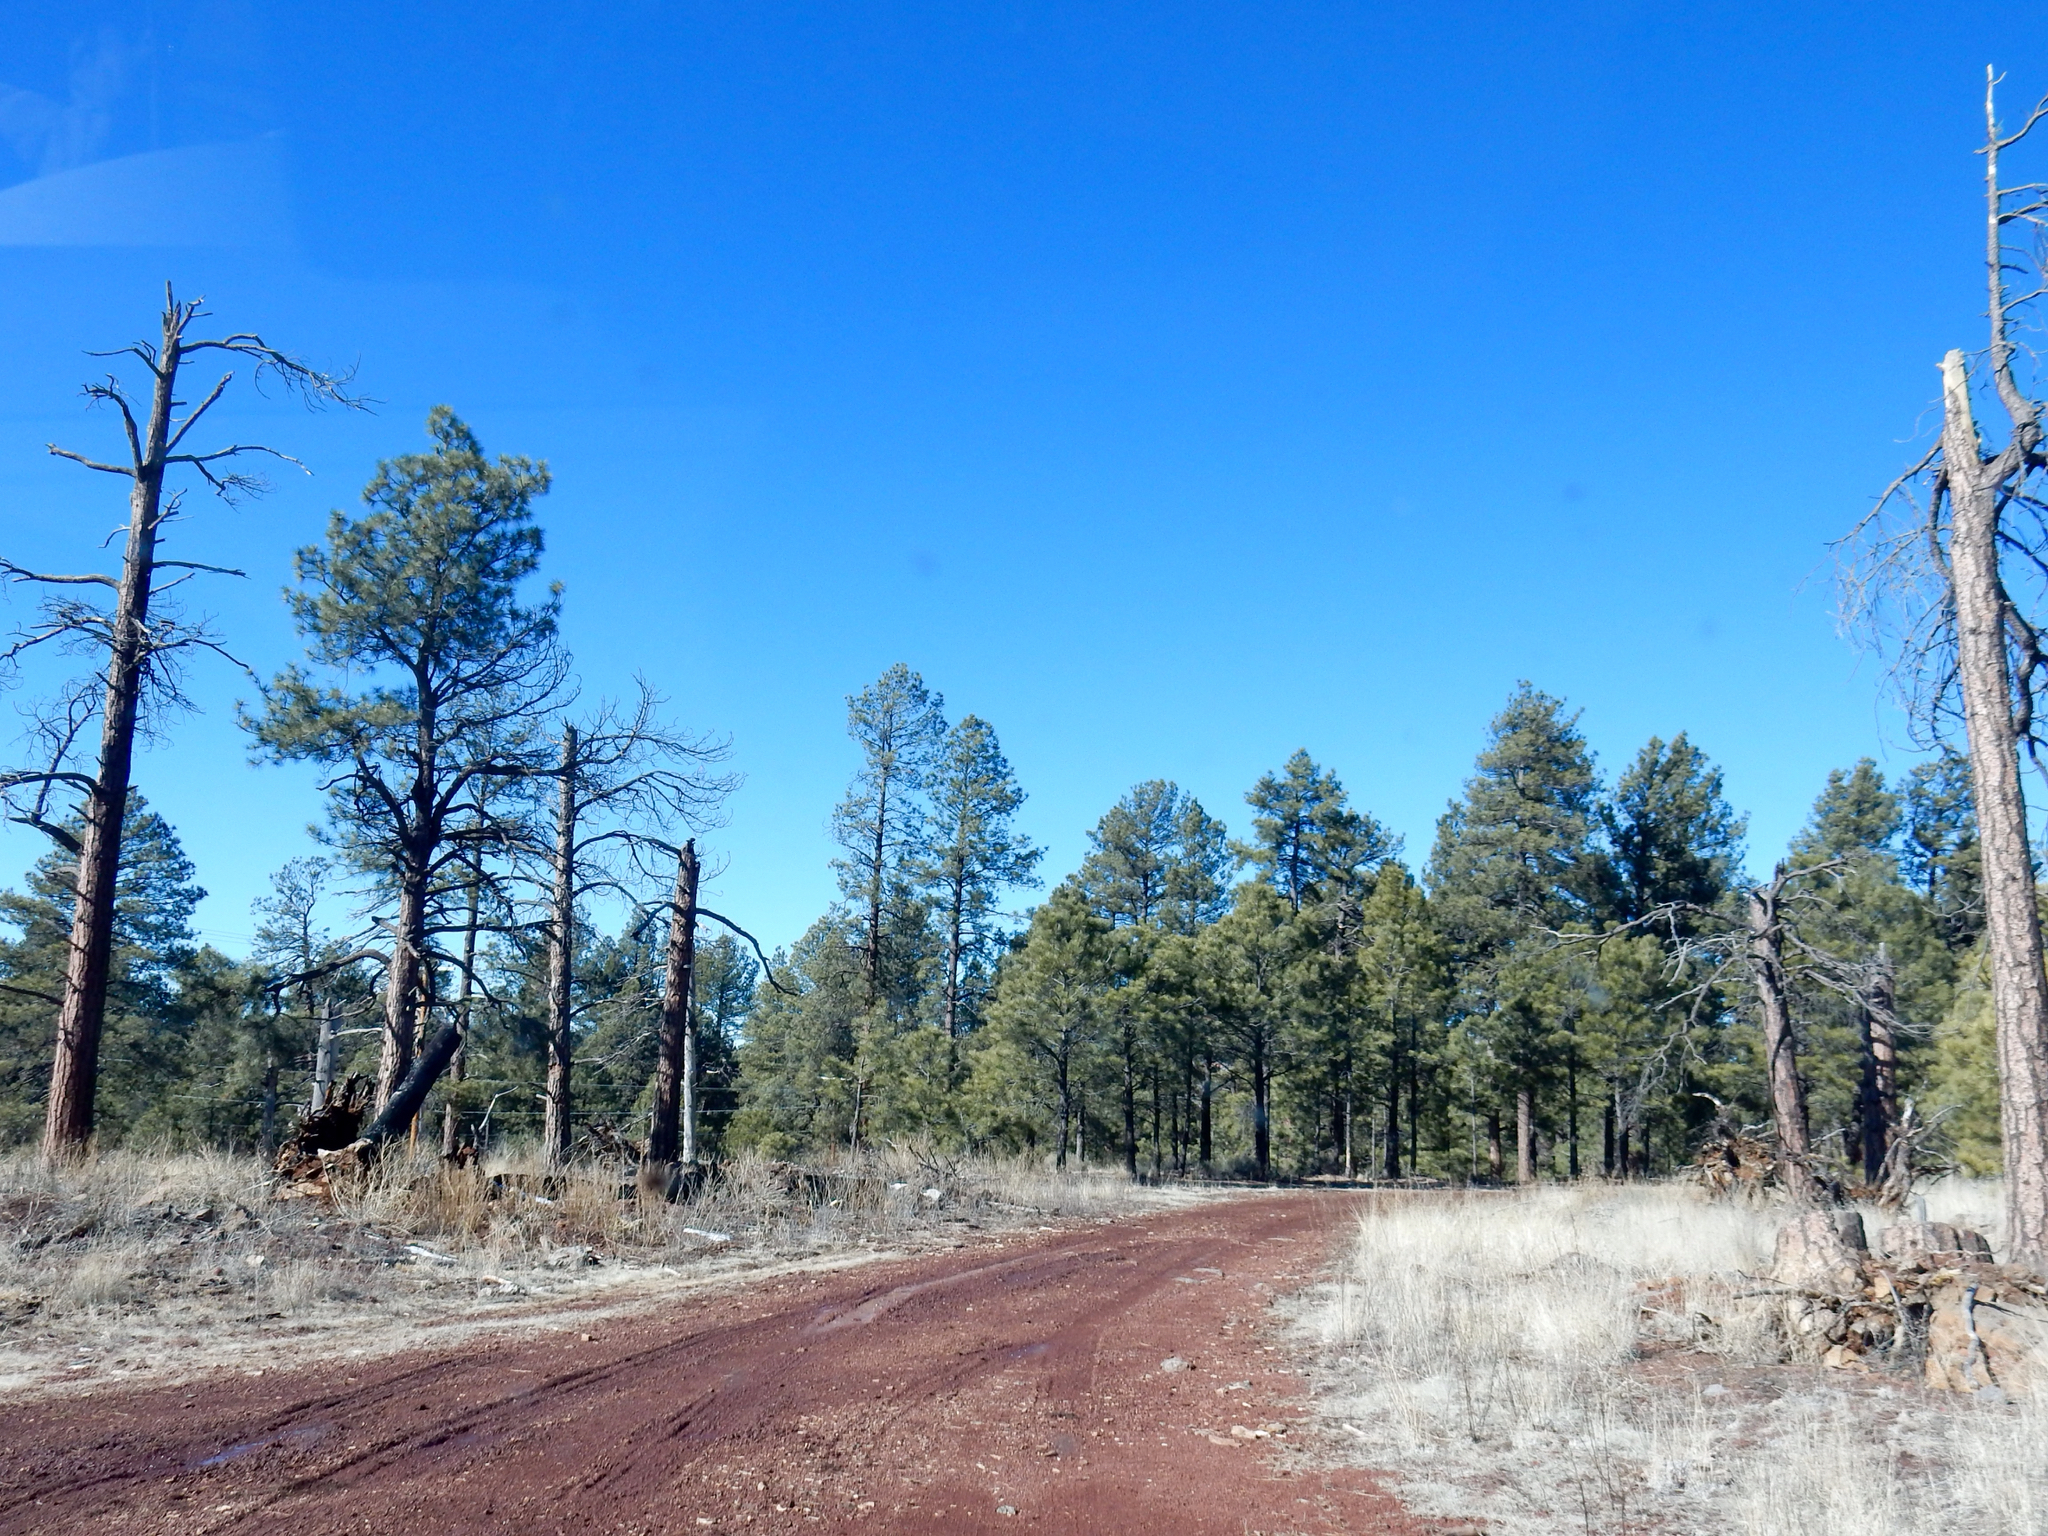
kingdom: Plantae
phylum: Tracheophyta
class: Pinopsida
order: Pinales
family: Pinaceae
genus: Pinus
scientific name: Pinus ponderosa
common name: Western yellow-pine
